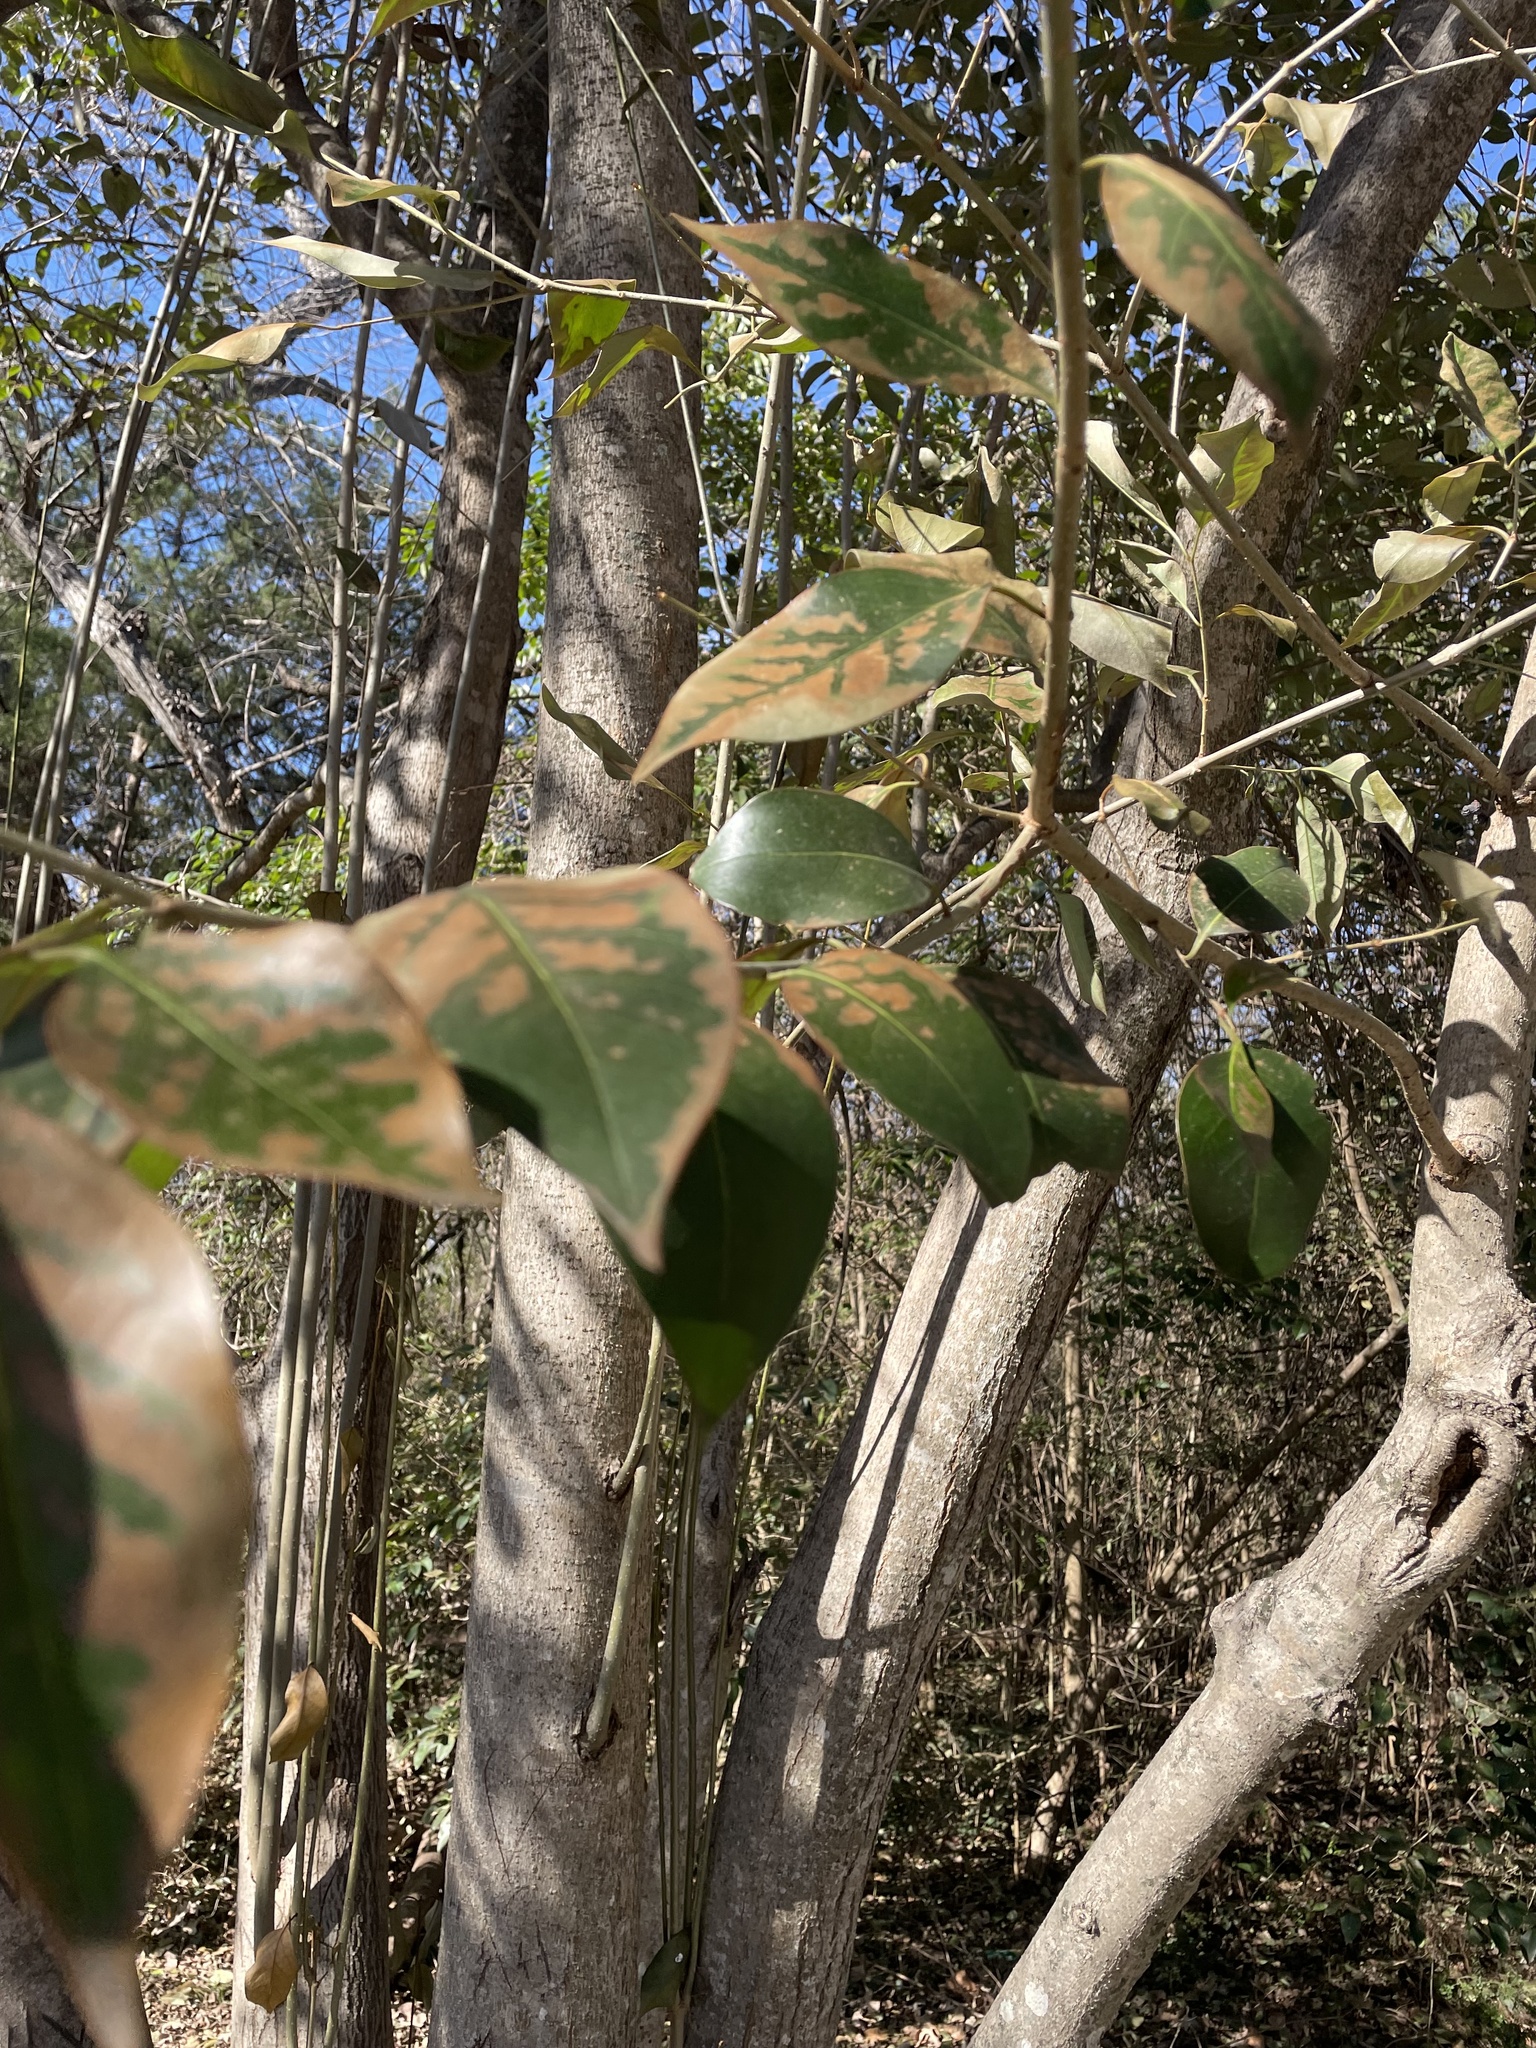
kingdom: Plantae
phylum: Tracheophyta
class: Magnoliopsida
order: Lamiales
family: Oleaceae
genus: Ligustrum
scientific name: Ligustrum lucidum
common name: Glossy privet
